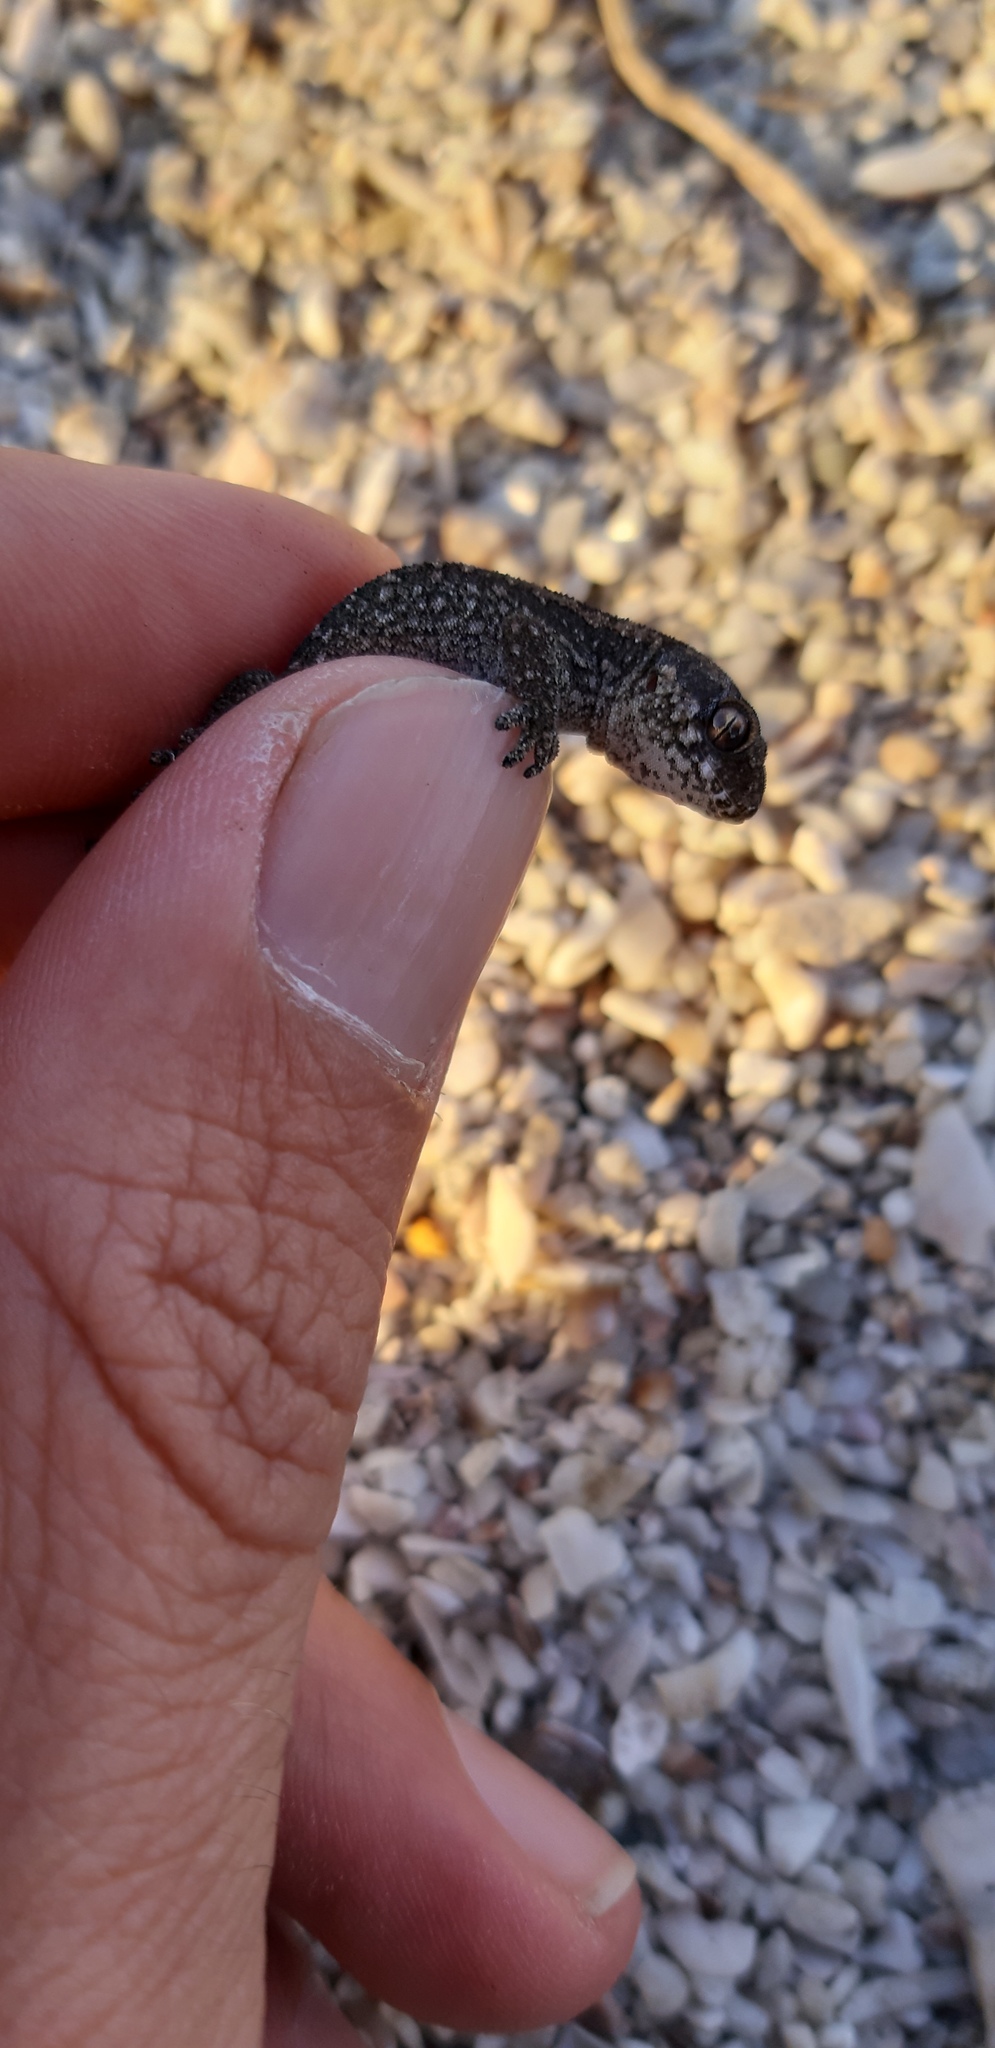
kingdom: Animalia
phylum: Chordata
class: Squamata
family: Gekkonidae
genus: Pachydactylus
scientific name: Pachydactylus maculatus
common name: Spotted thick-toed gecko
